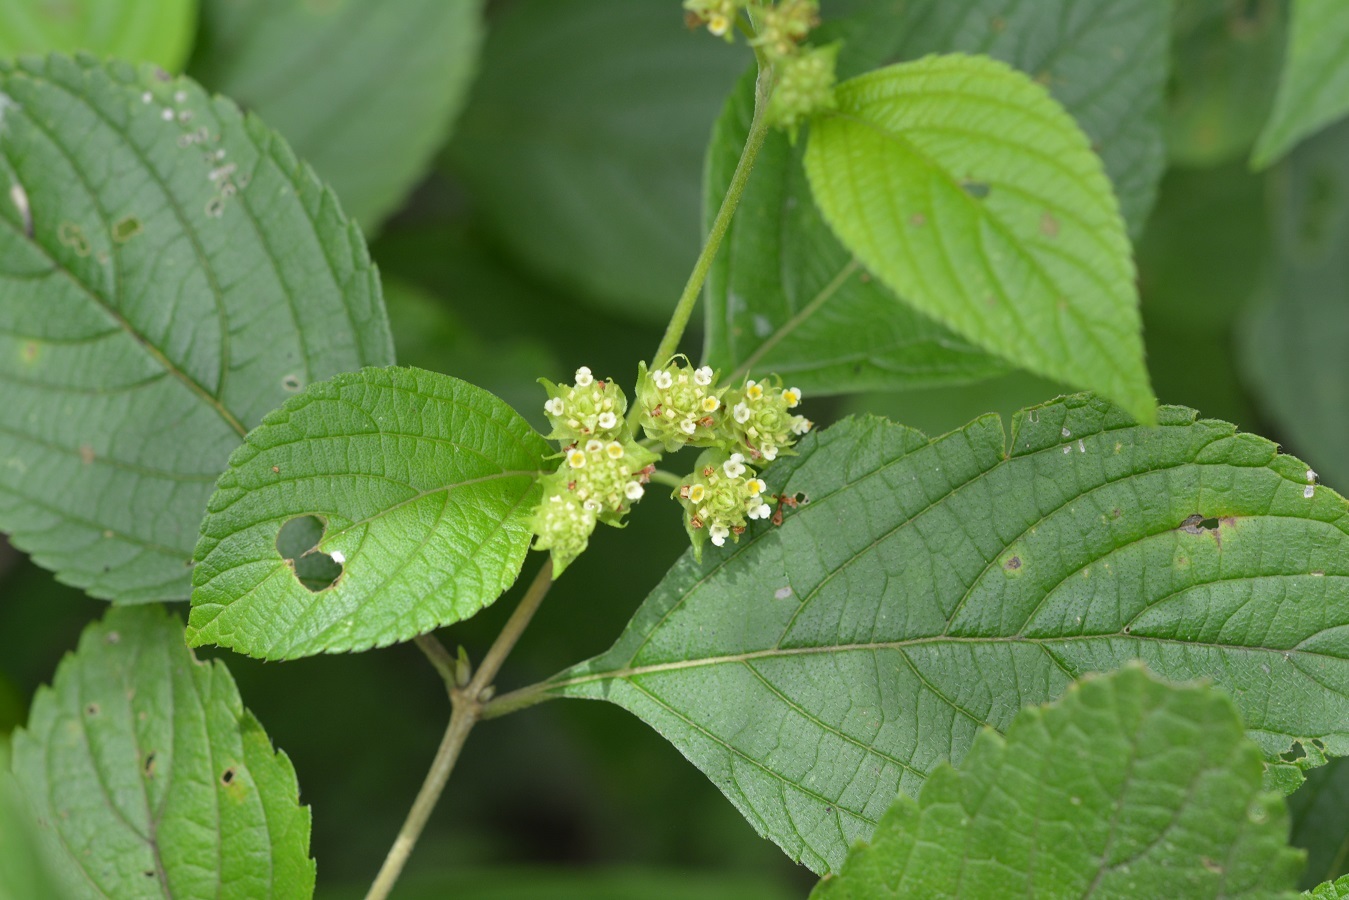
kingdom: Plantae
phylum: Tracheophyta
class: Magnoliopsida
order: Lamiales
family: Verbenaceae
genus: Lippia
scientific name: Lippia cardiostegia
